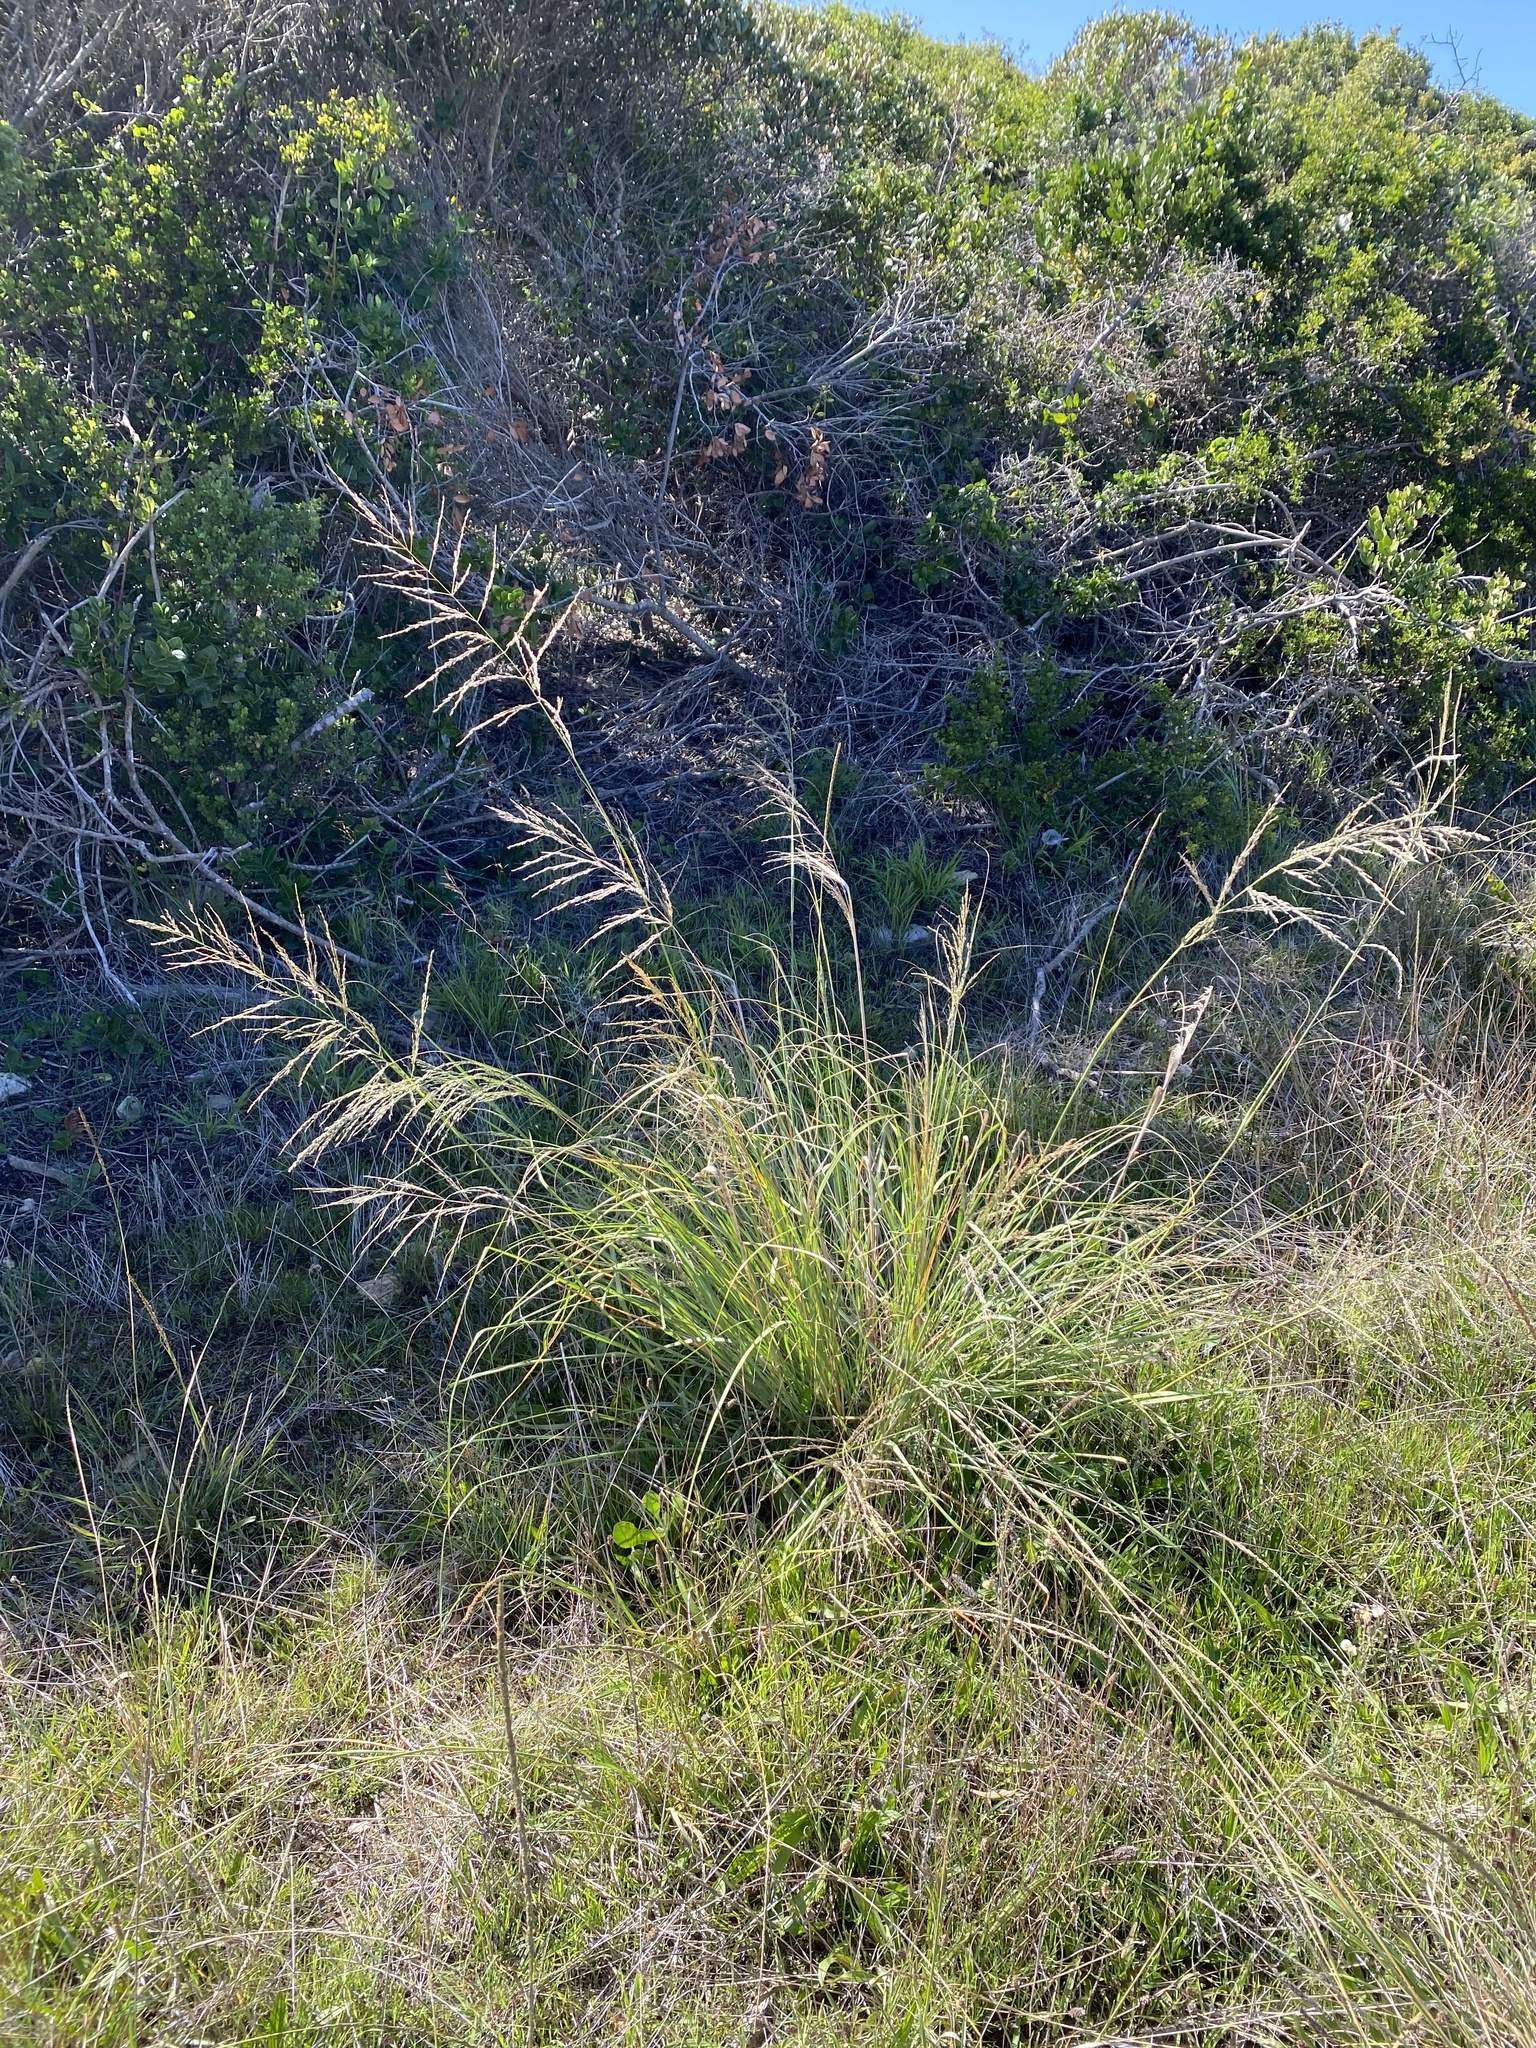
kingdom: Plantae
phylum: Tracheophyta
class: Liliopsida
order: Poales
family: Poaceae
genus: Eragrostis
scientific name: Eragrostis curvula
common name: African love-grass
